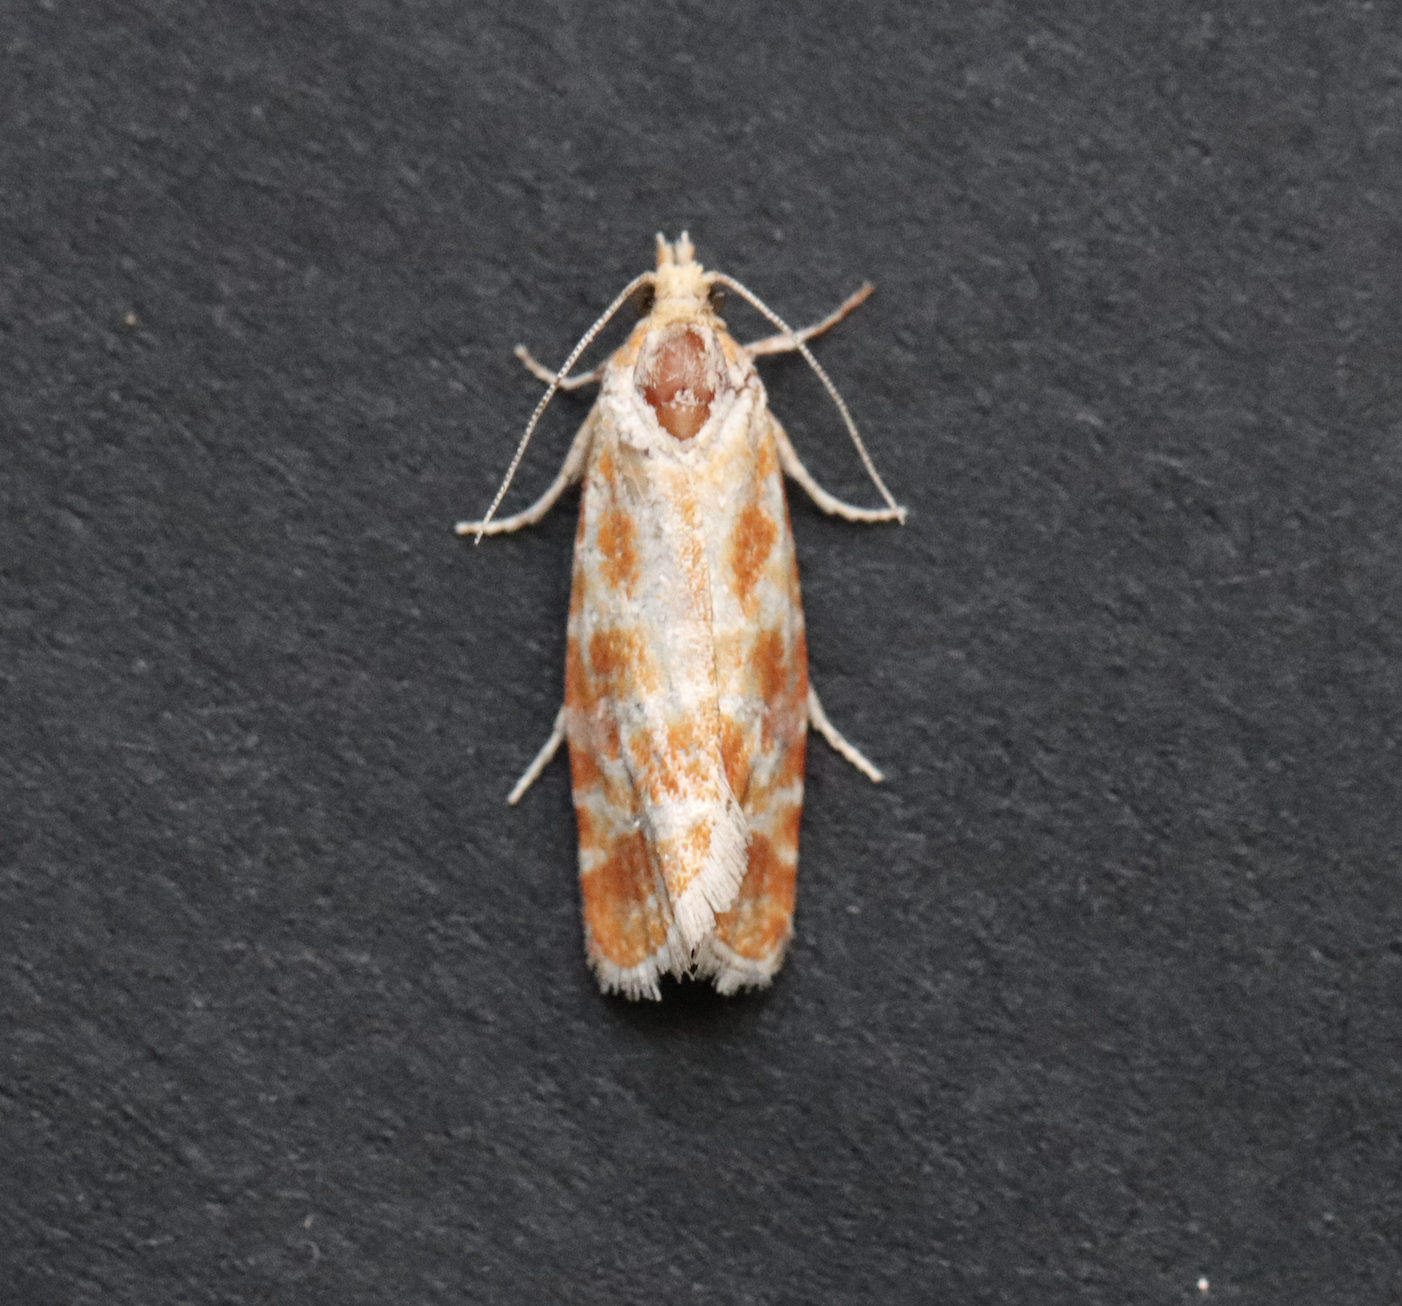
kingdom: Animalia
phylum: Arthropoda
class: Insecta
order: Lepidoptera
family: Tortricidae
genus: Rhyacionia
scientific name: Rhyacionia pinicolana
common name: Orange-spotted shoot
